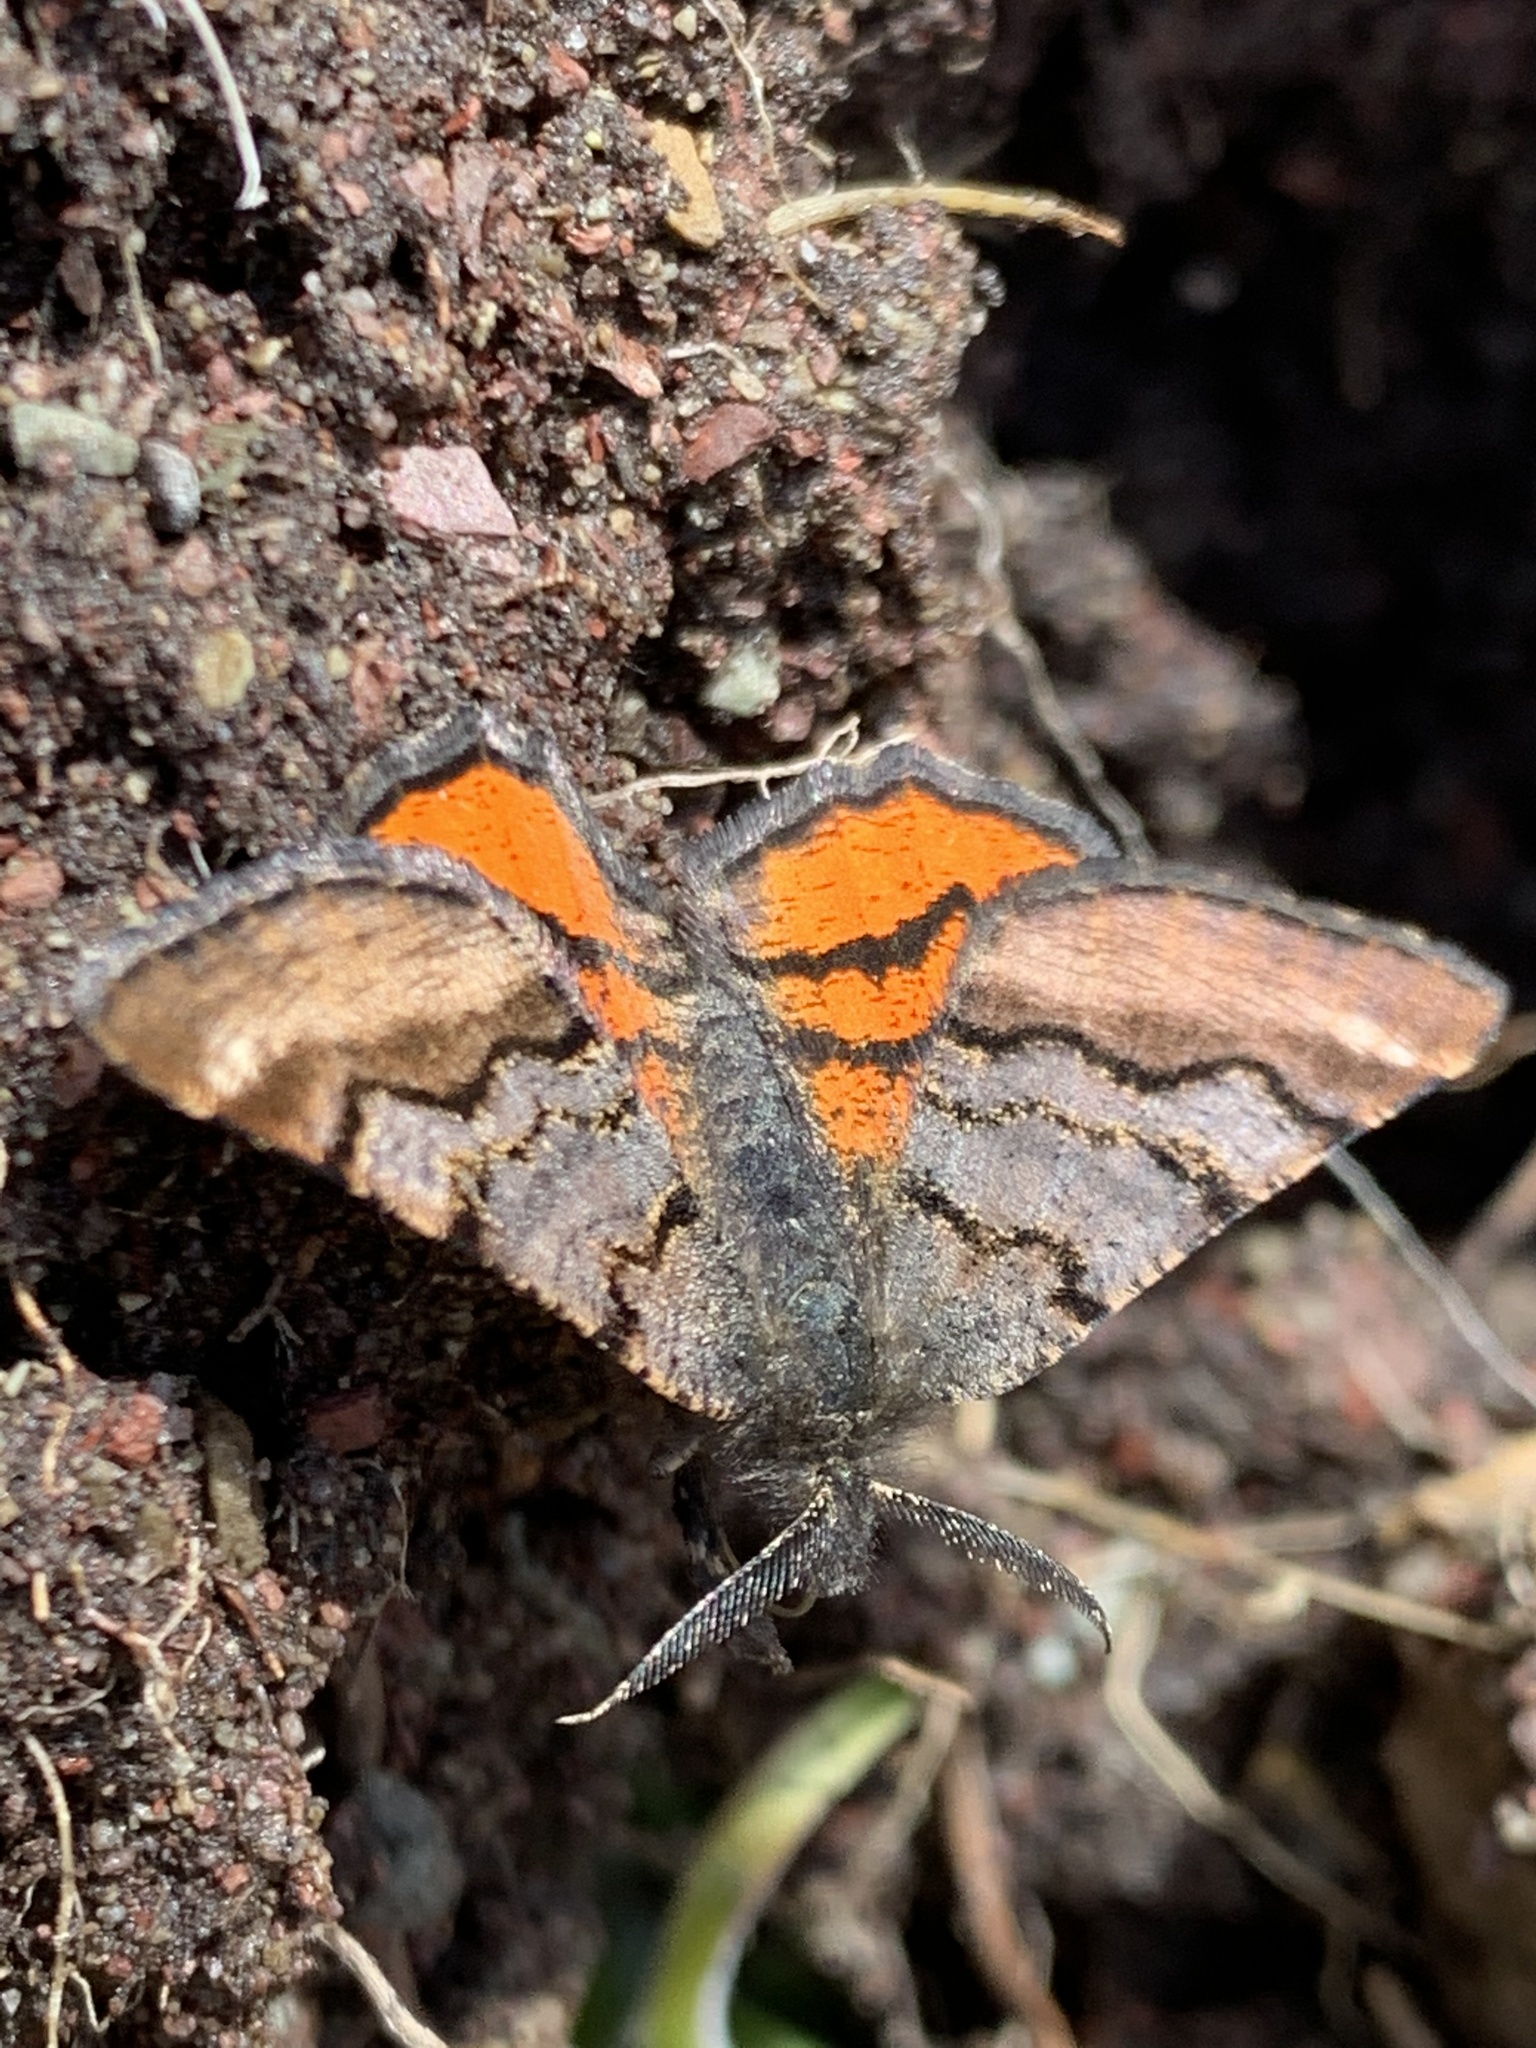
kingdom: Animalia
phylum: Arthropoda
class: Insecta
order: Lepidoptera
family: Geometridae
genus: Dasyfidonia
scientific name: Dasyfidonia avuncularia
